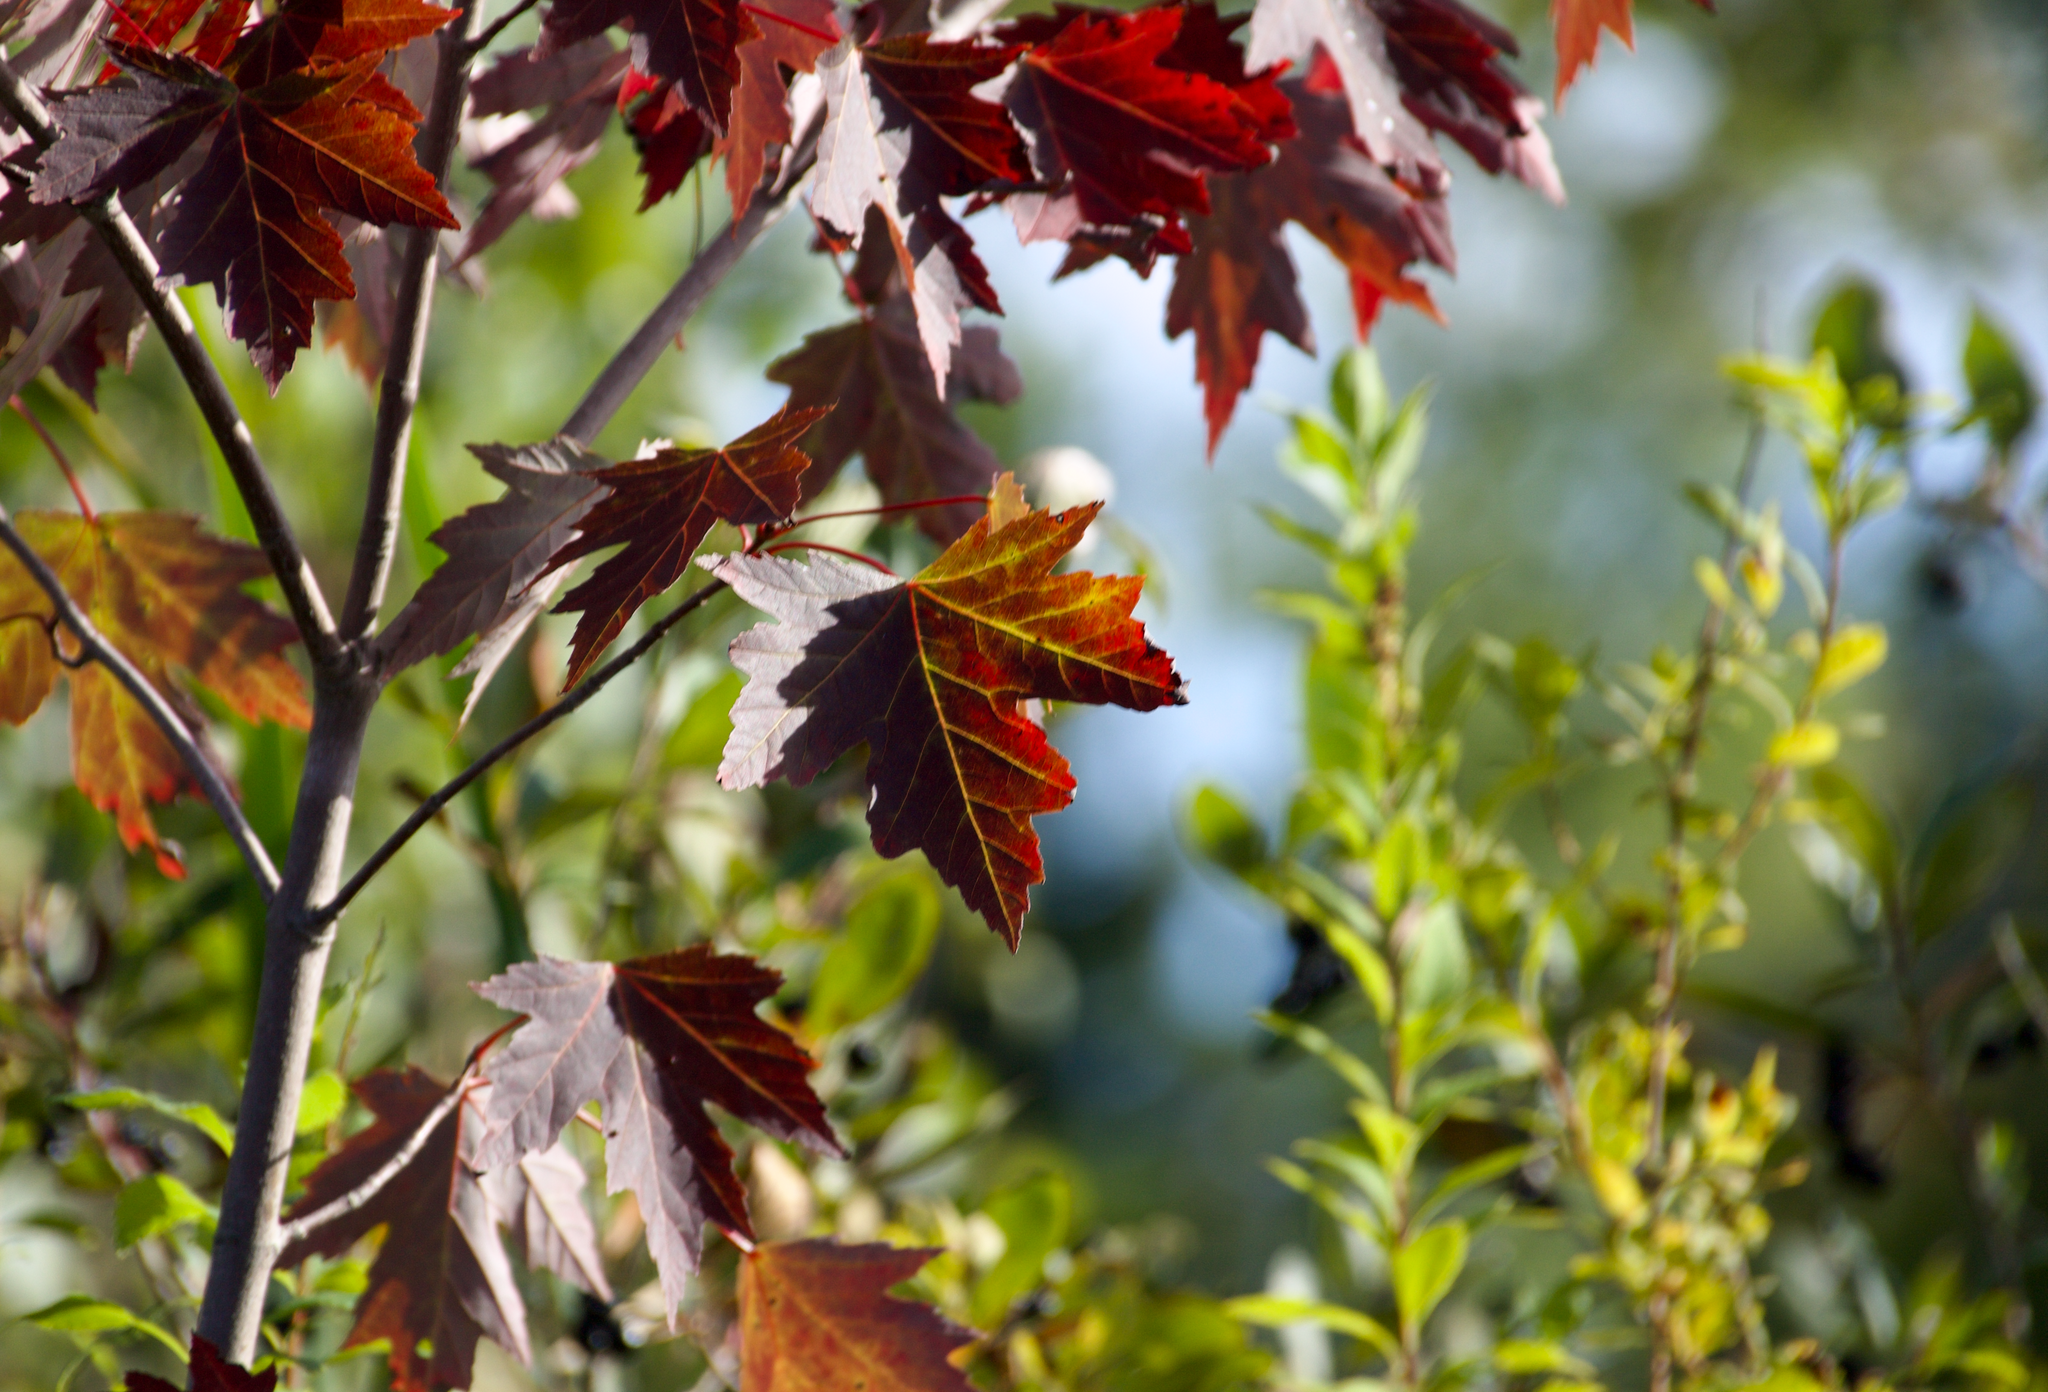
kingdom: Plantae
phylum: Tracheophyta
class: Magnoliopsida
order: Sapindales
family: Sapindaceae
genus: Acer
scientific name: Acer freemanii
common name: Freeman maple
